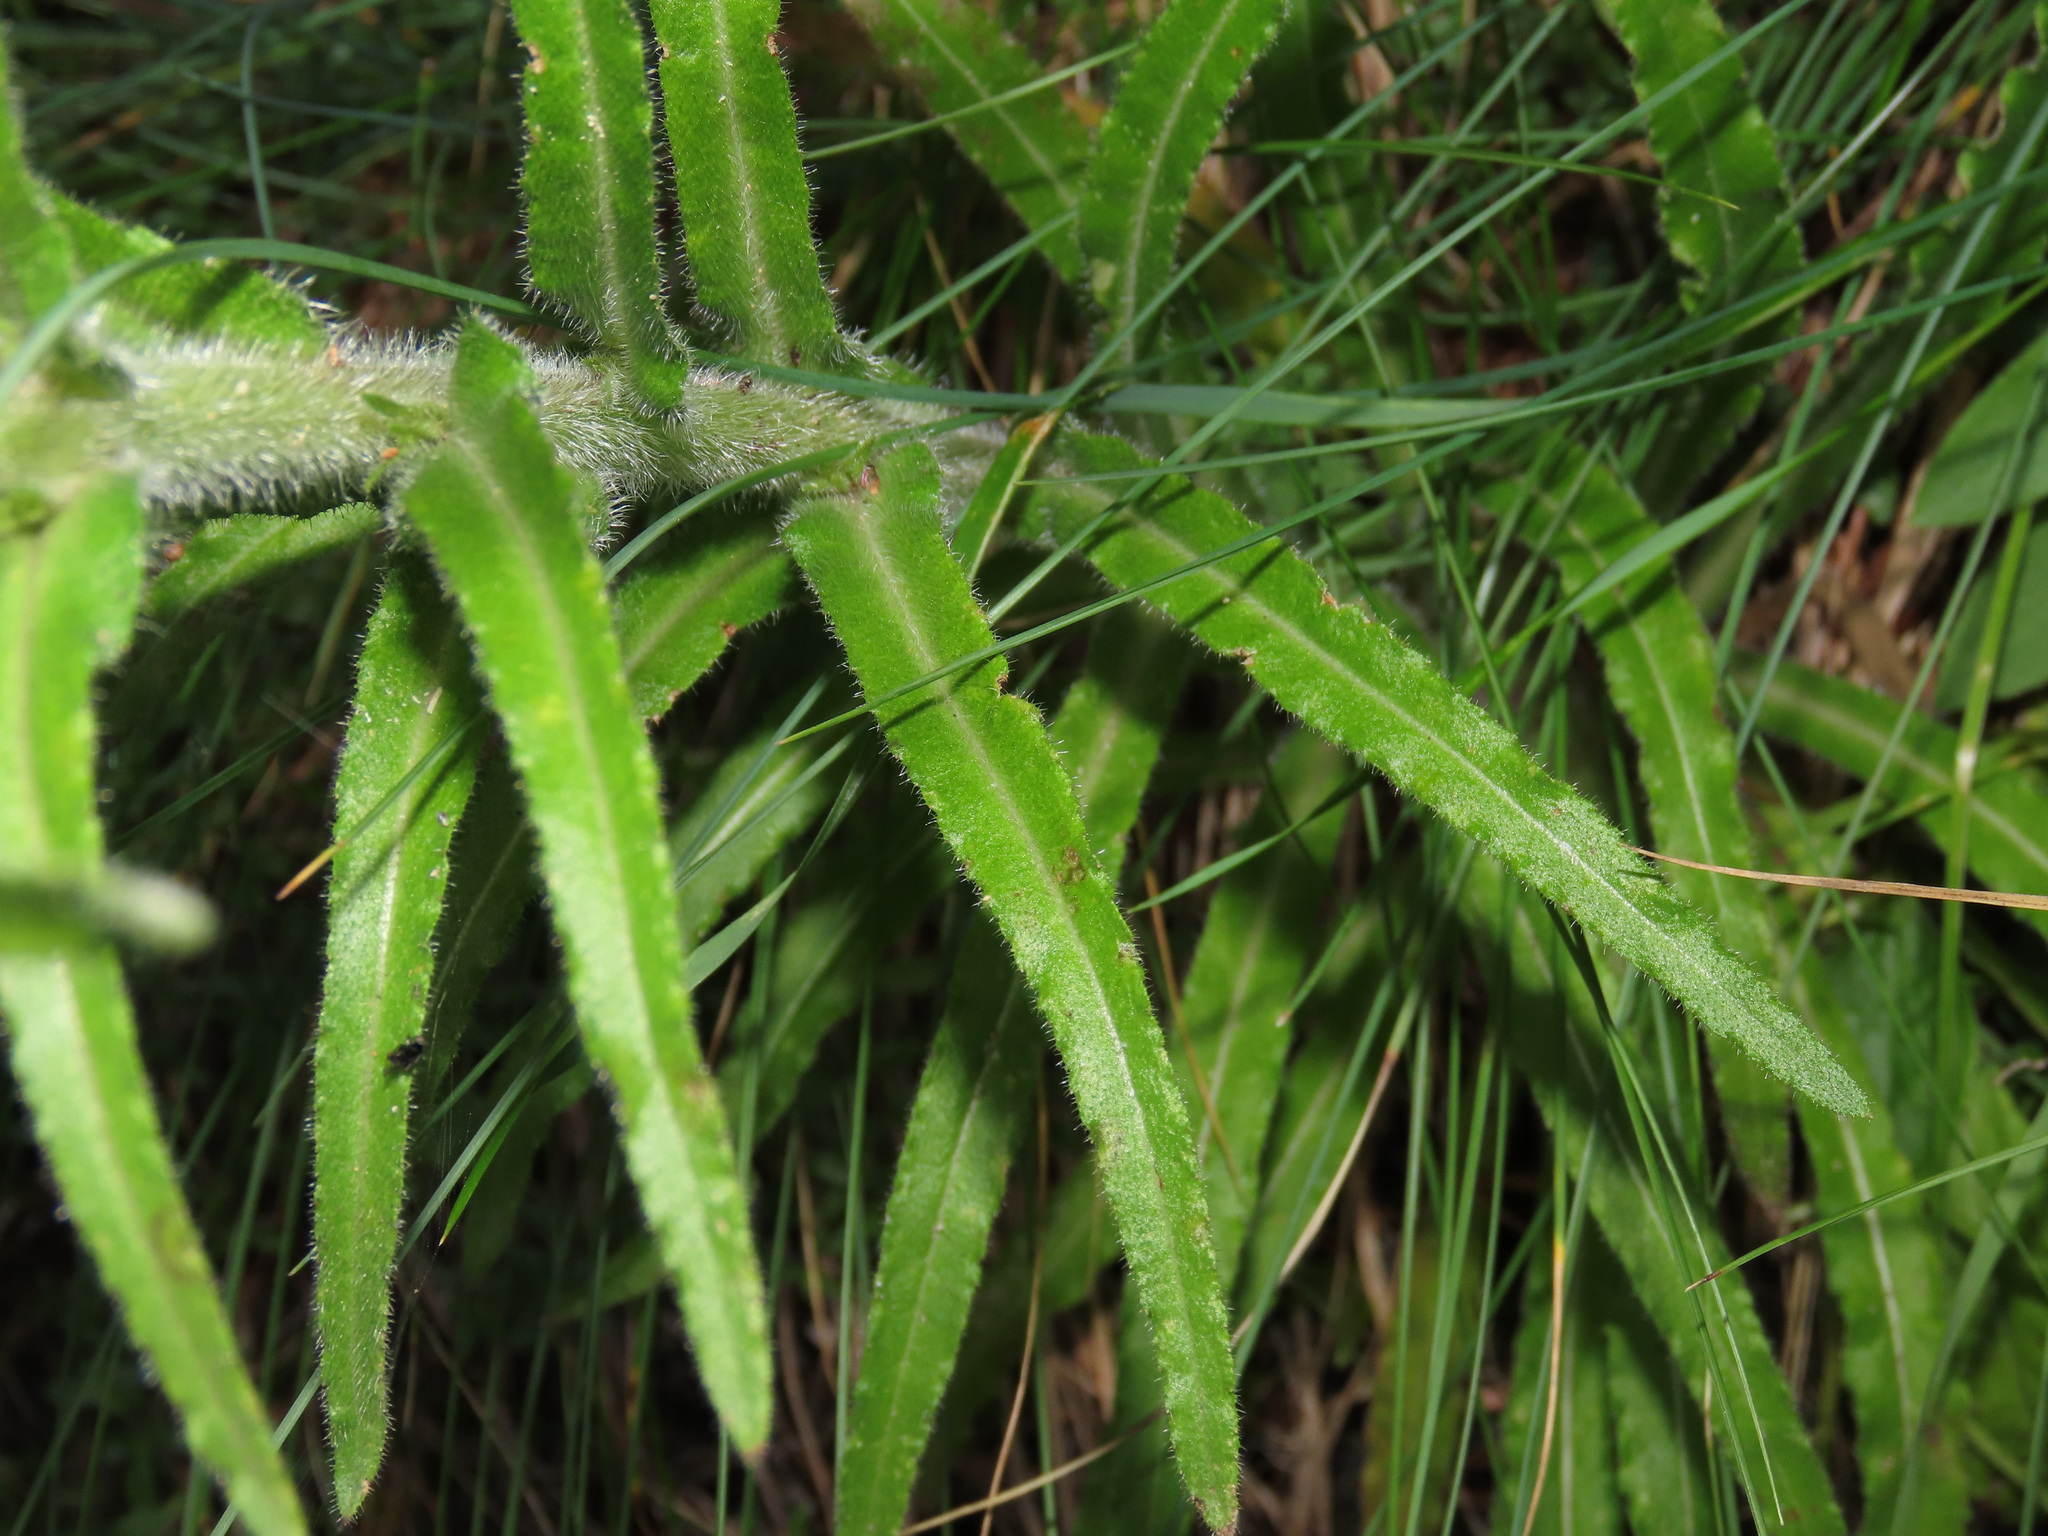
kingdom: Plantae
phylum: Tracheophyta
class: Magnoliopsida
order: Asterales
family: Campanulaceae
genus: Campanula
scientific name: Campanula spicata
